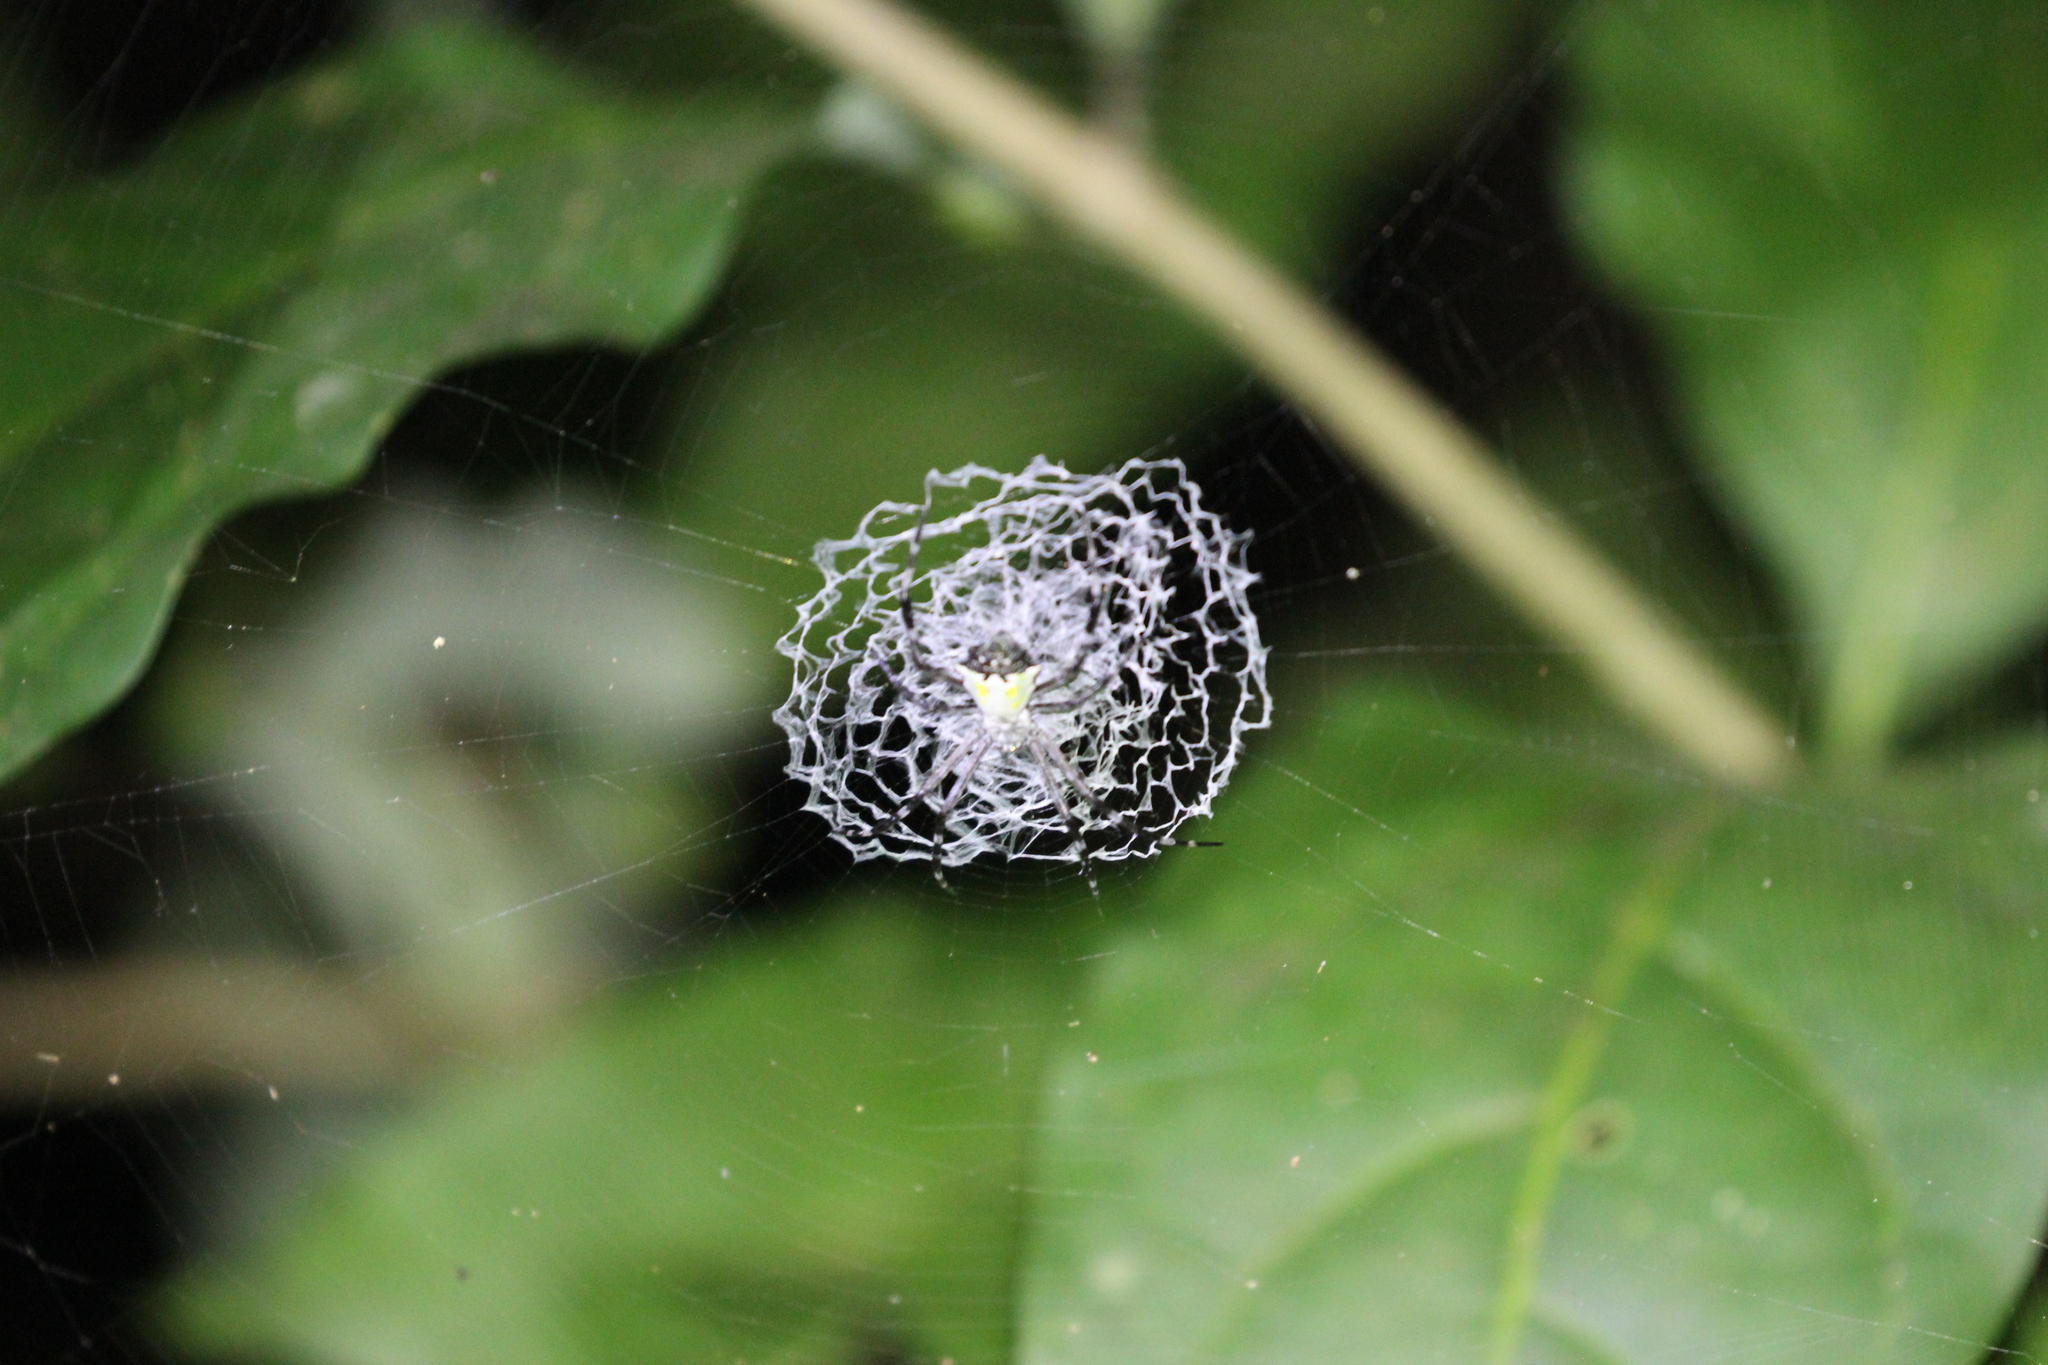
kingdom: Animalia
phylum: Arthropoda
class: Arachnida
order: Araneae
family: Araneidae
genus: Argiope
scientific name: Argiope submaronica
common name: Orb weavers
